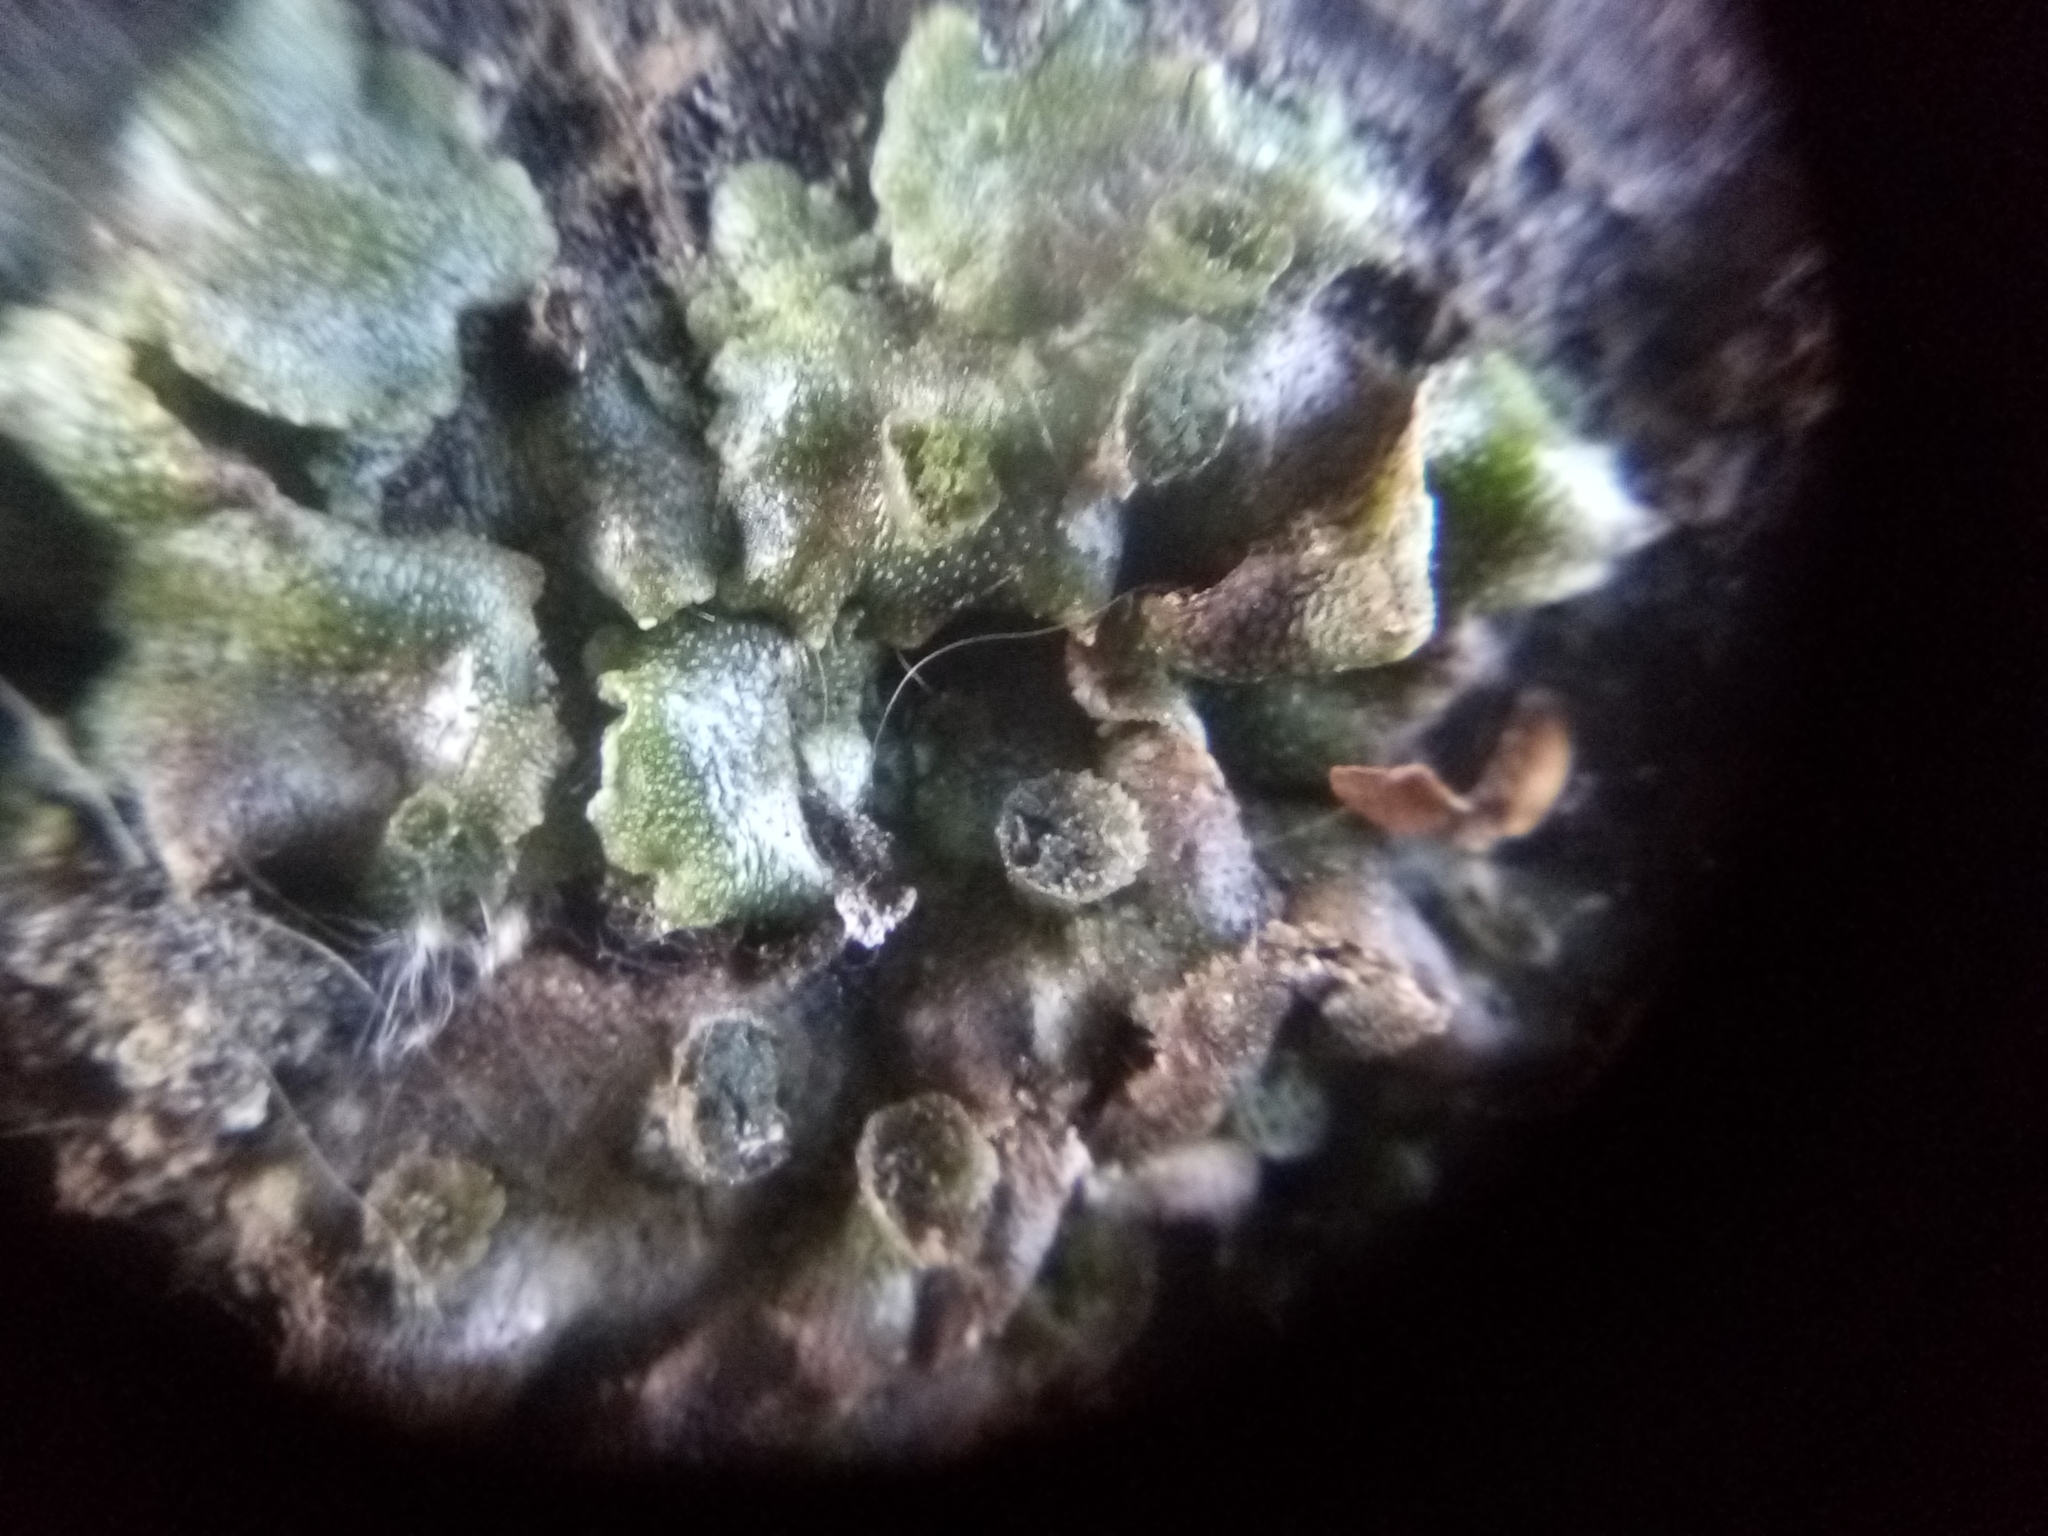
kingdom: Plantae
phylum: Marchantiophyta
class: Marchantiopsida
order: Marchantiales
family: Marchantiaceae
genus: Marchantia
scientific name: Marchantia polymorpha
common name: Common liverwort
